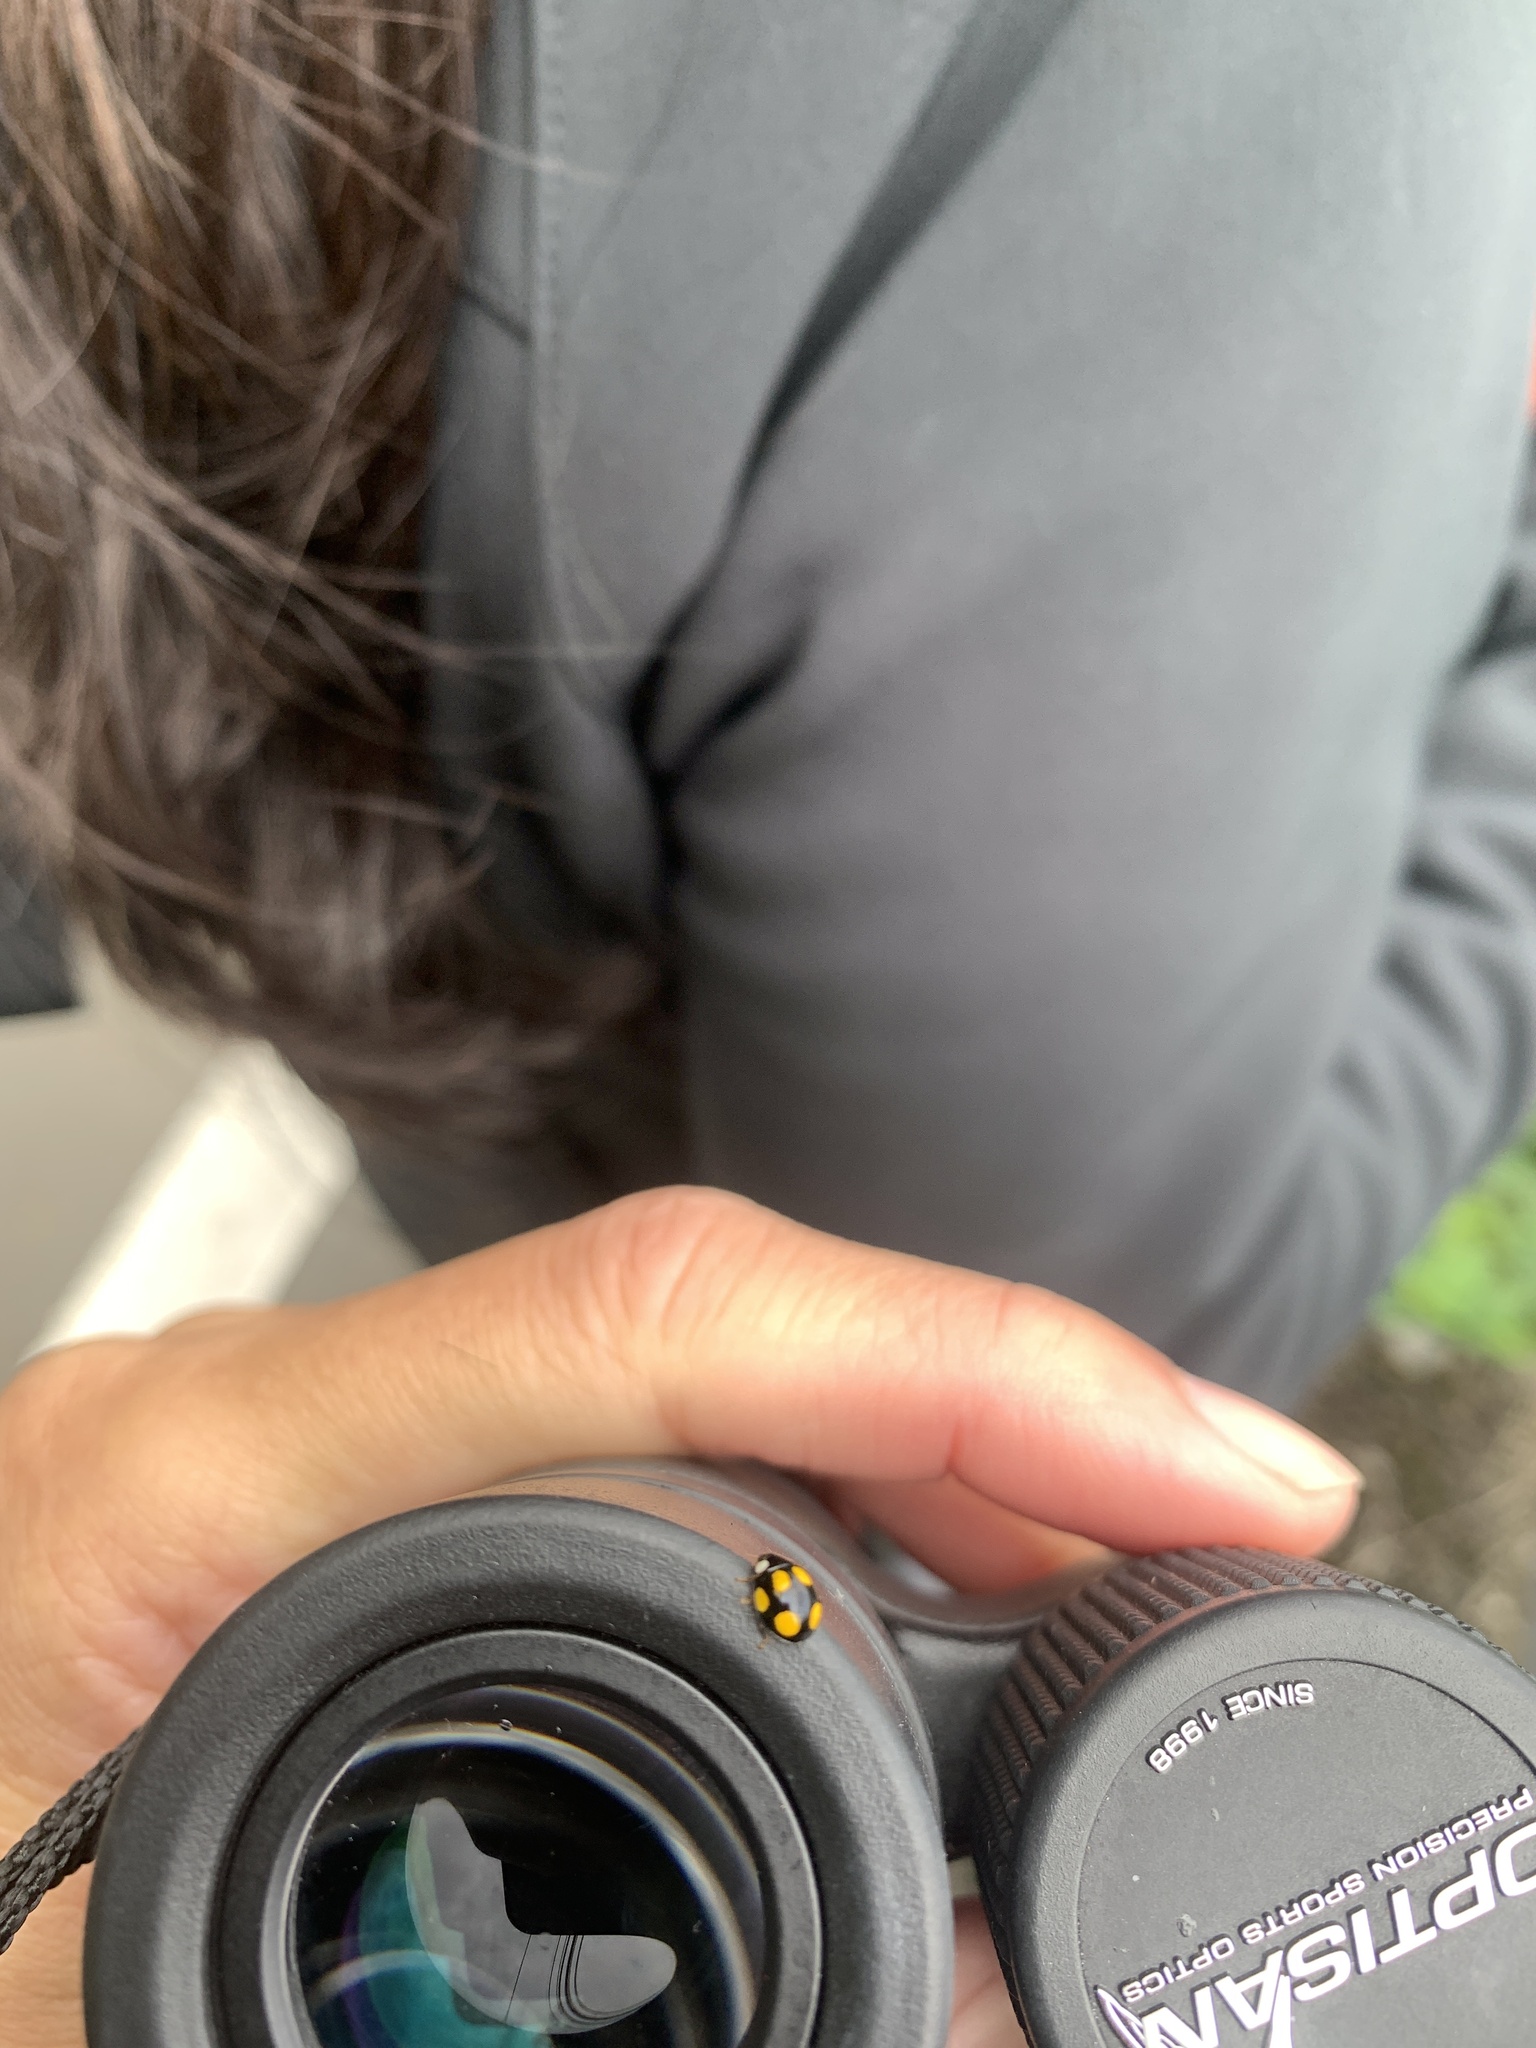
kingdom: Animalia
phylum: Arthropoda
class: Insecta
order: Coleoptera
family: Coccinellidae
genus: Oenopia
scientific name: Oenopia formosana
